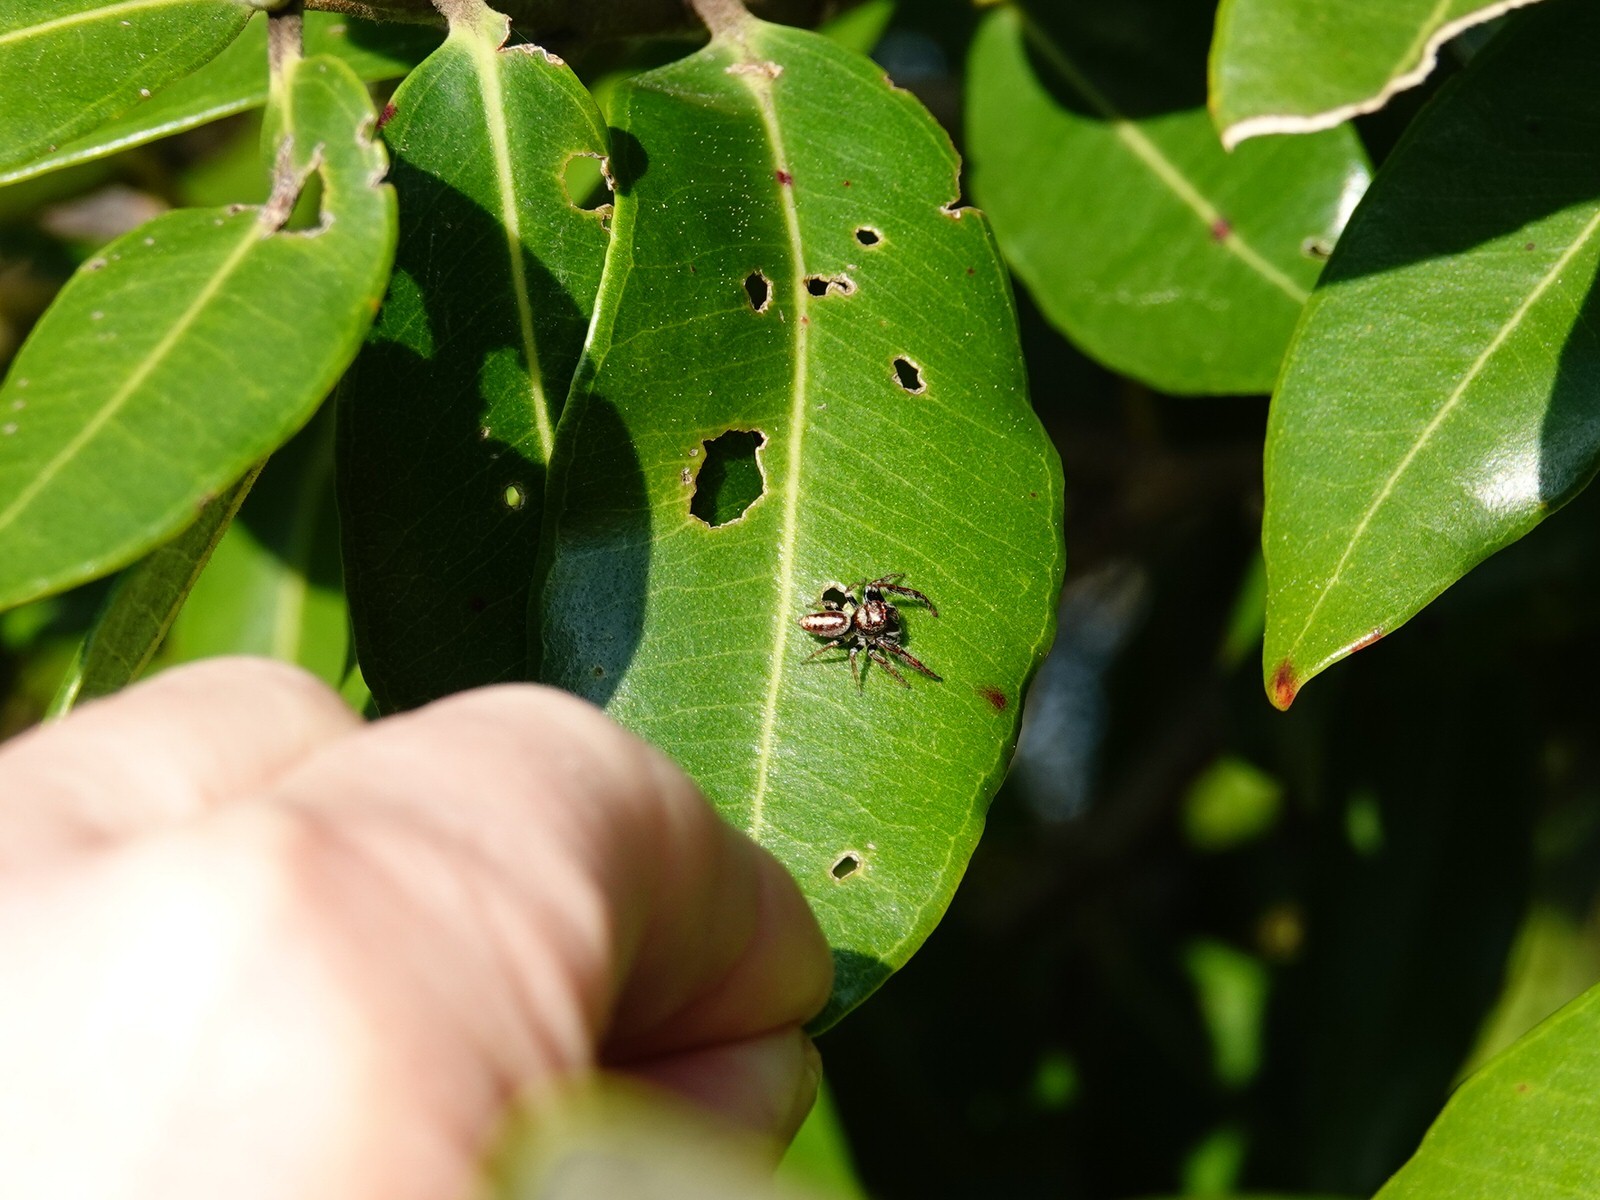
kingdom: Animalia
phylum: Arthropoda
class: Arachnida
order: Araneae
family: Salticidae
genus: Opisthoncus
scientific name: Opisthoncus polyphemus
